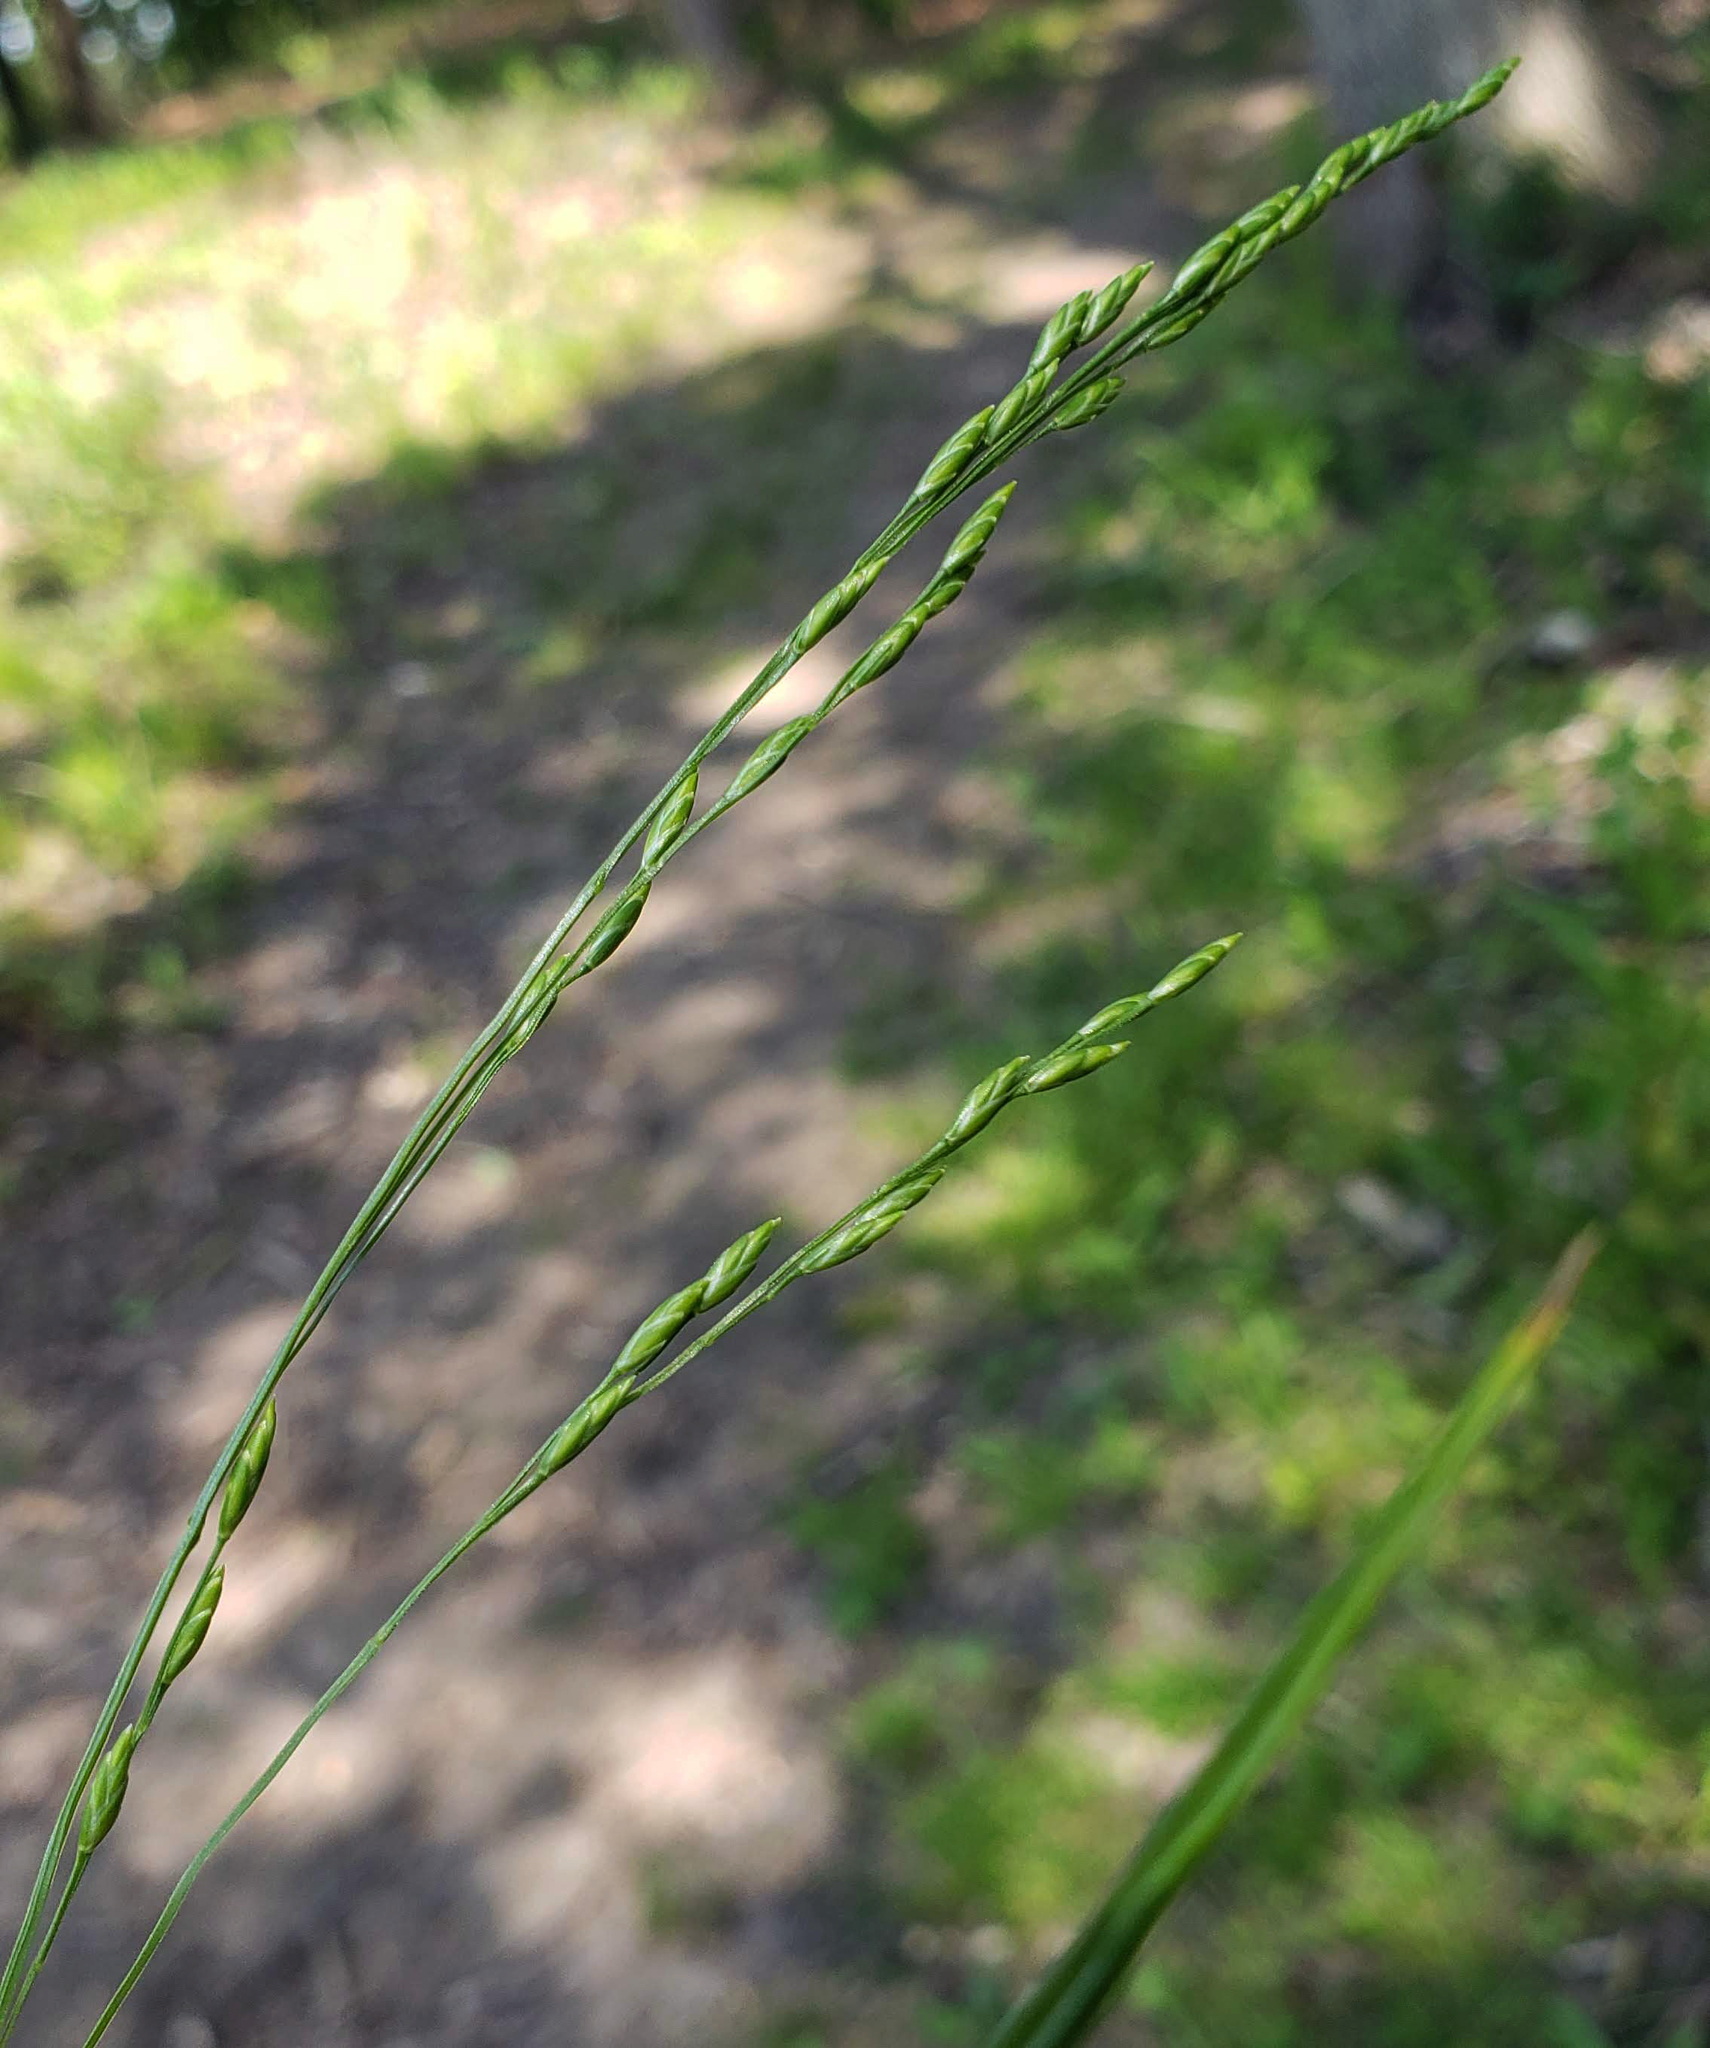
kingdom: Plantae
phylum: Tracheophyta
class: Liliopsida
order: Poales
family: Poaceae
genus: Festuca
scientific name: Festuca subverticillata
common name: Nodding fescue
